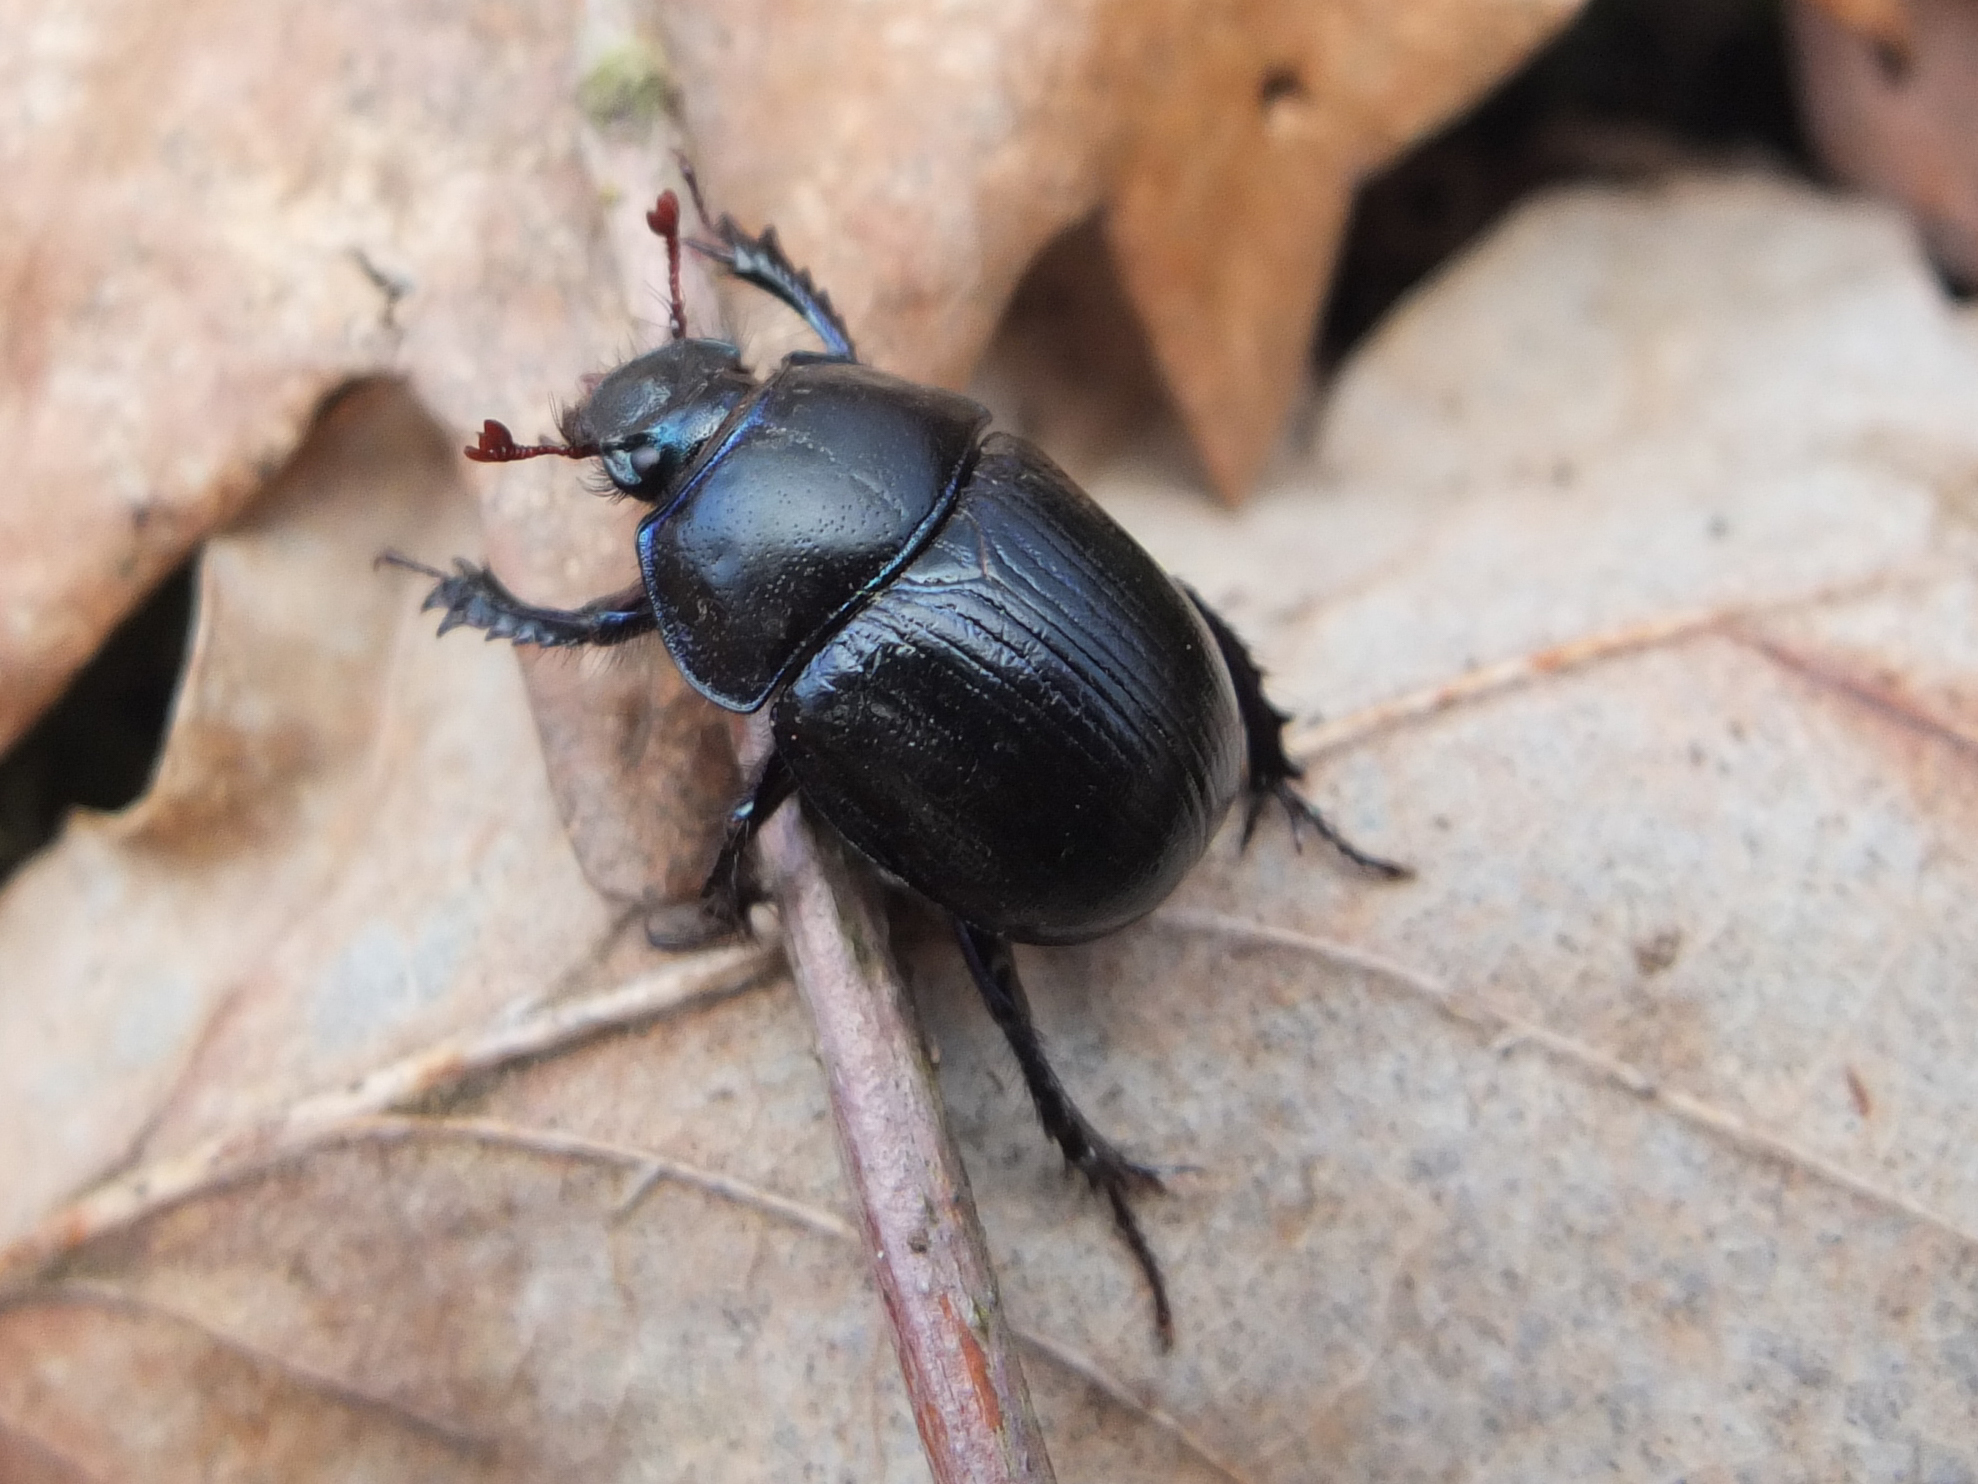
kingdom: Animalia
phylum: Arthropoda
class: Insecta
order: Coleoptera
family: Geotrupidae
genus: Anoplotrupes
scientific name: Anoplotrupes stercorosus
